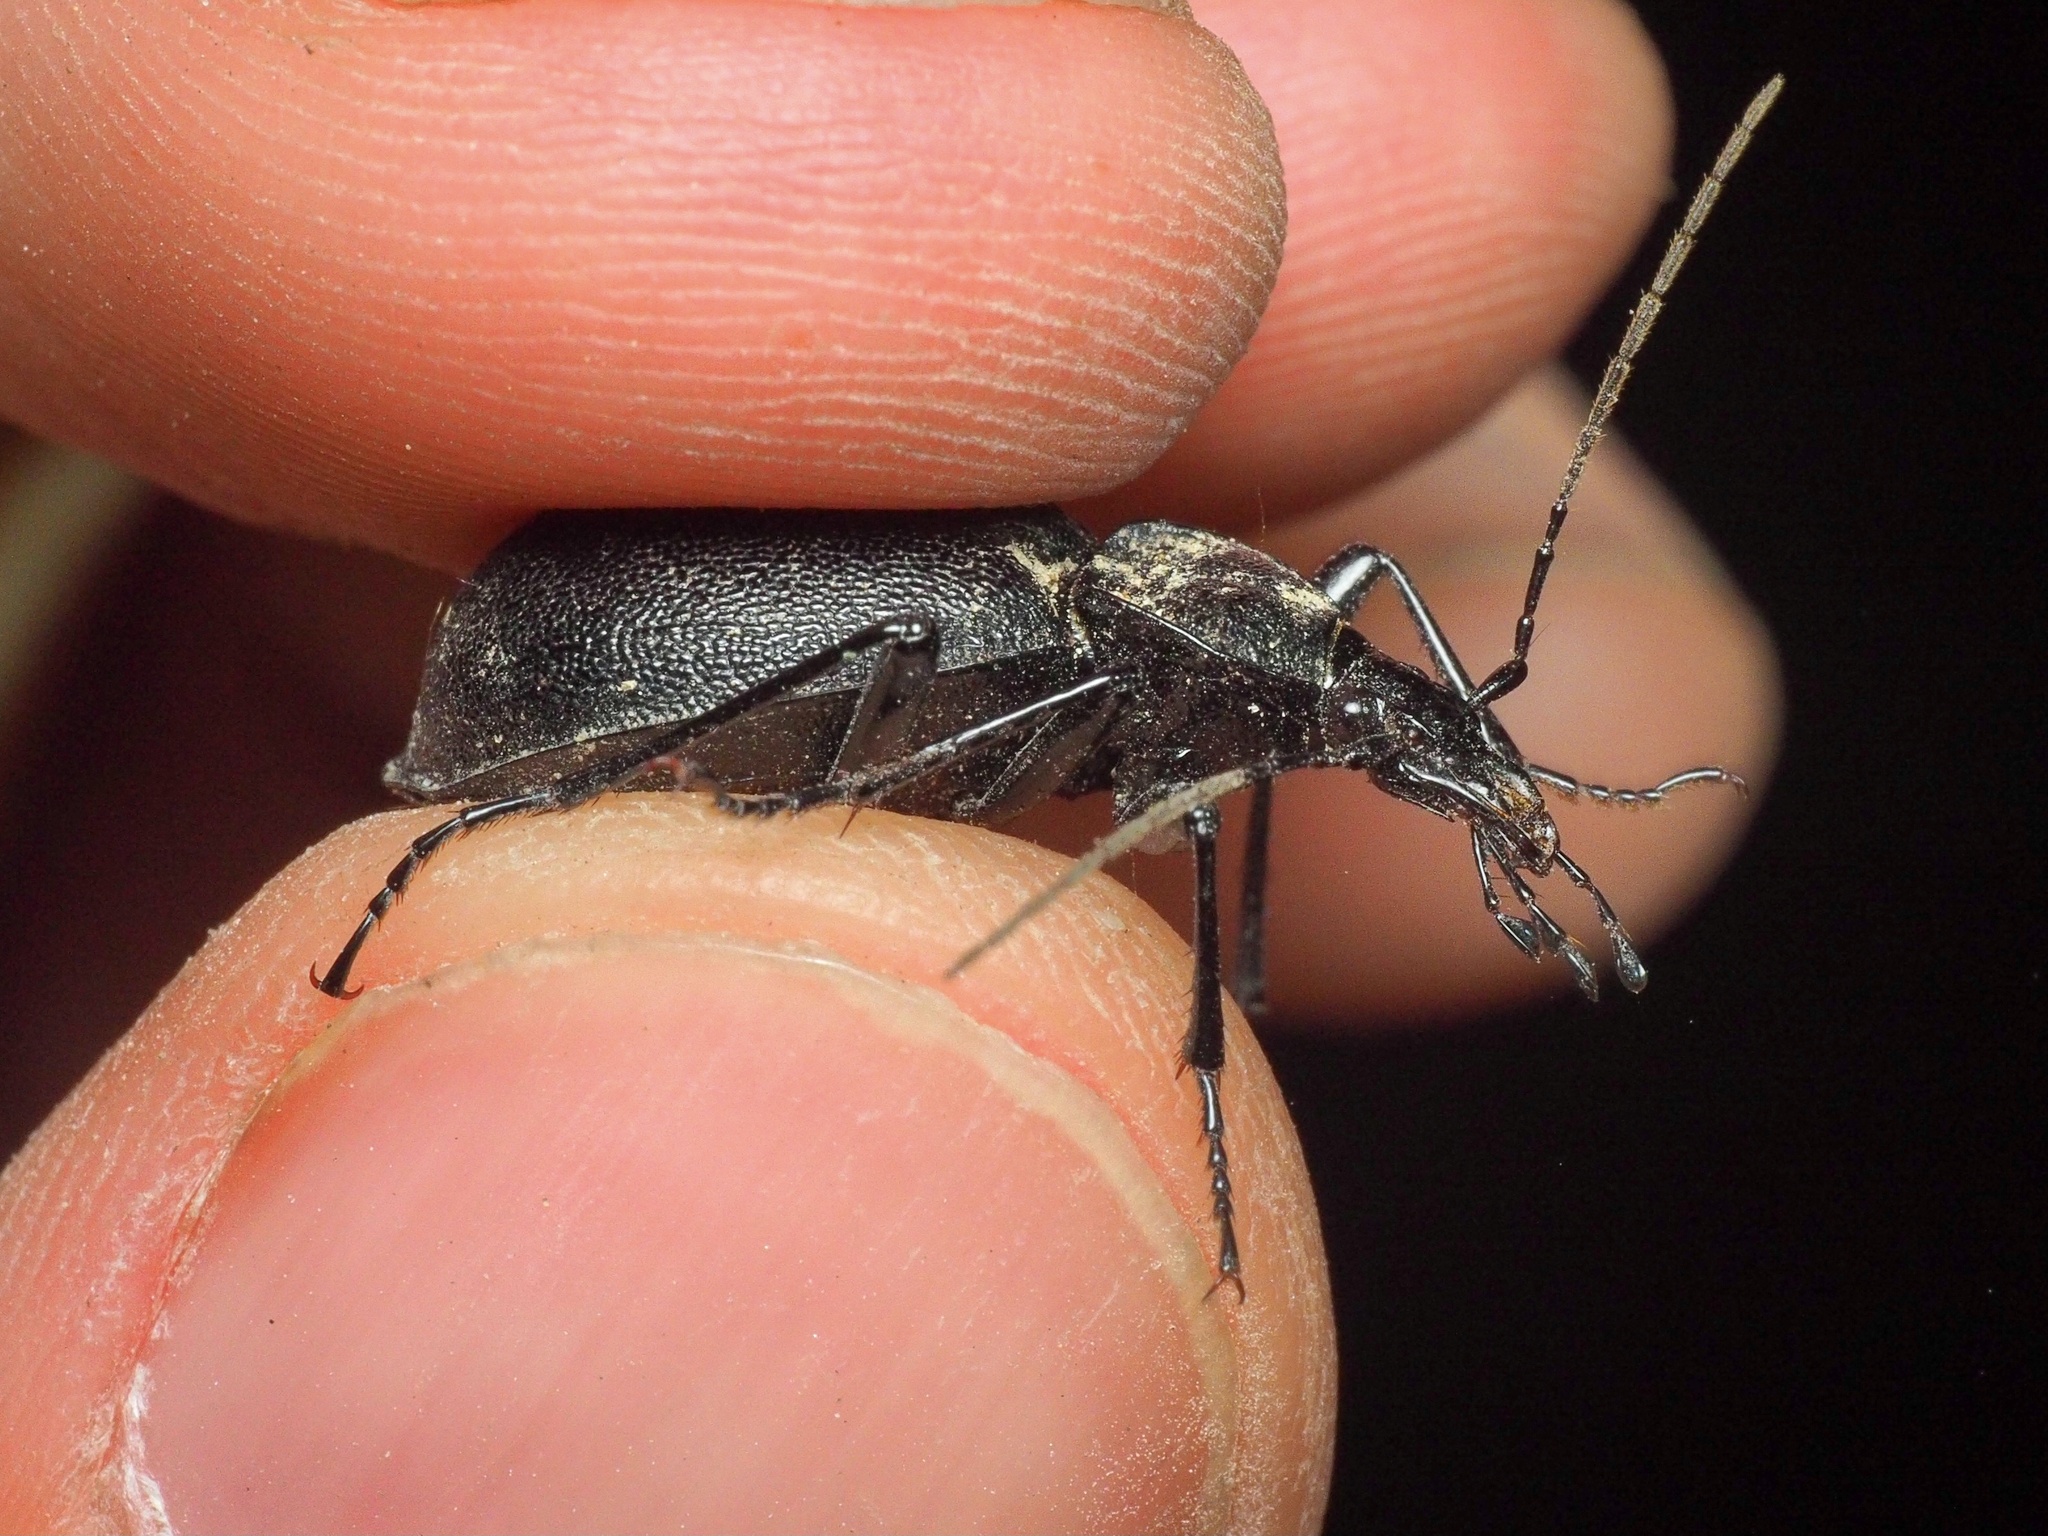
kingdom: Animalia
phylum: Arthropoda
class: Insecta
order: Coleoptera
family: Carabidae
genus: Cychrus
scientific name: Cychrus caraboides
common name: Snail hunter
